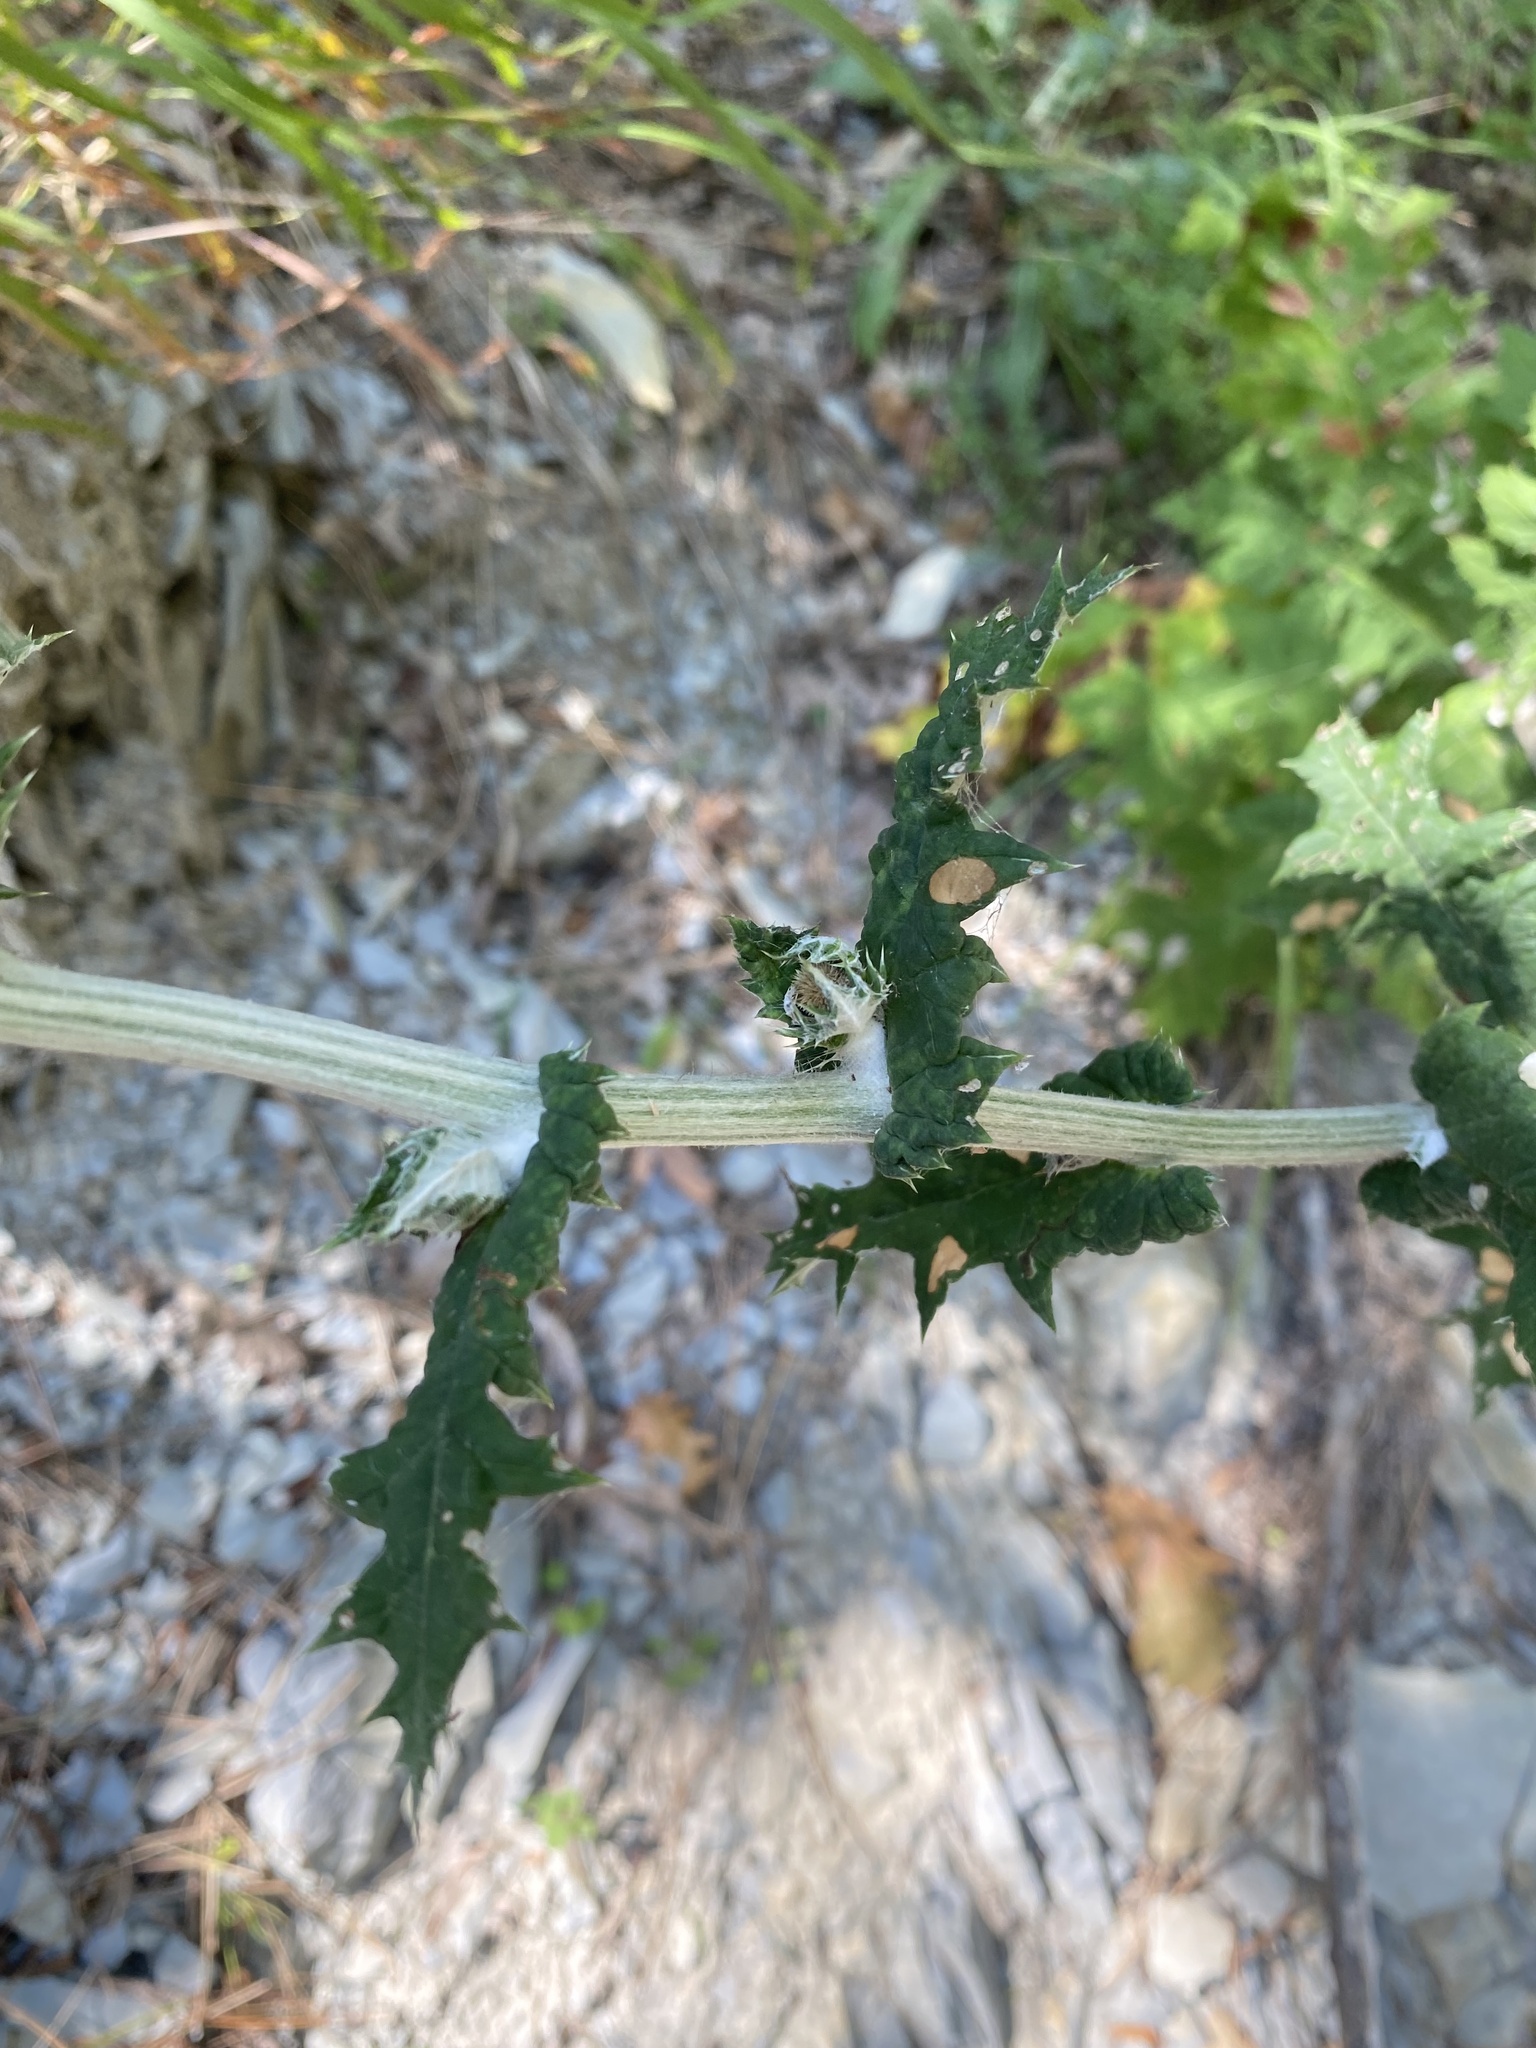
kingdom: Plantae
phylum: Tracheophyta
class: Magnoliopsida
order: Asterales
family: Asteraceae
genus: Echinops
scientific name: Echinops sphaerocephalus
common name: Glandular globe-thistle
